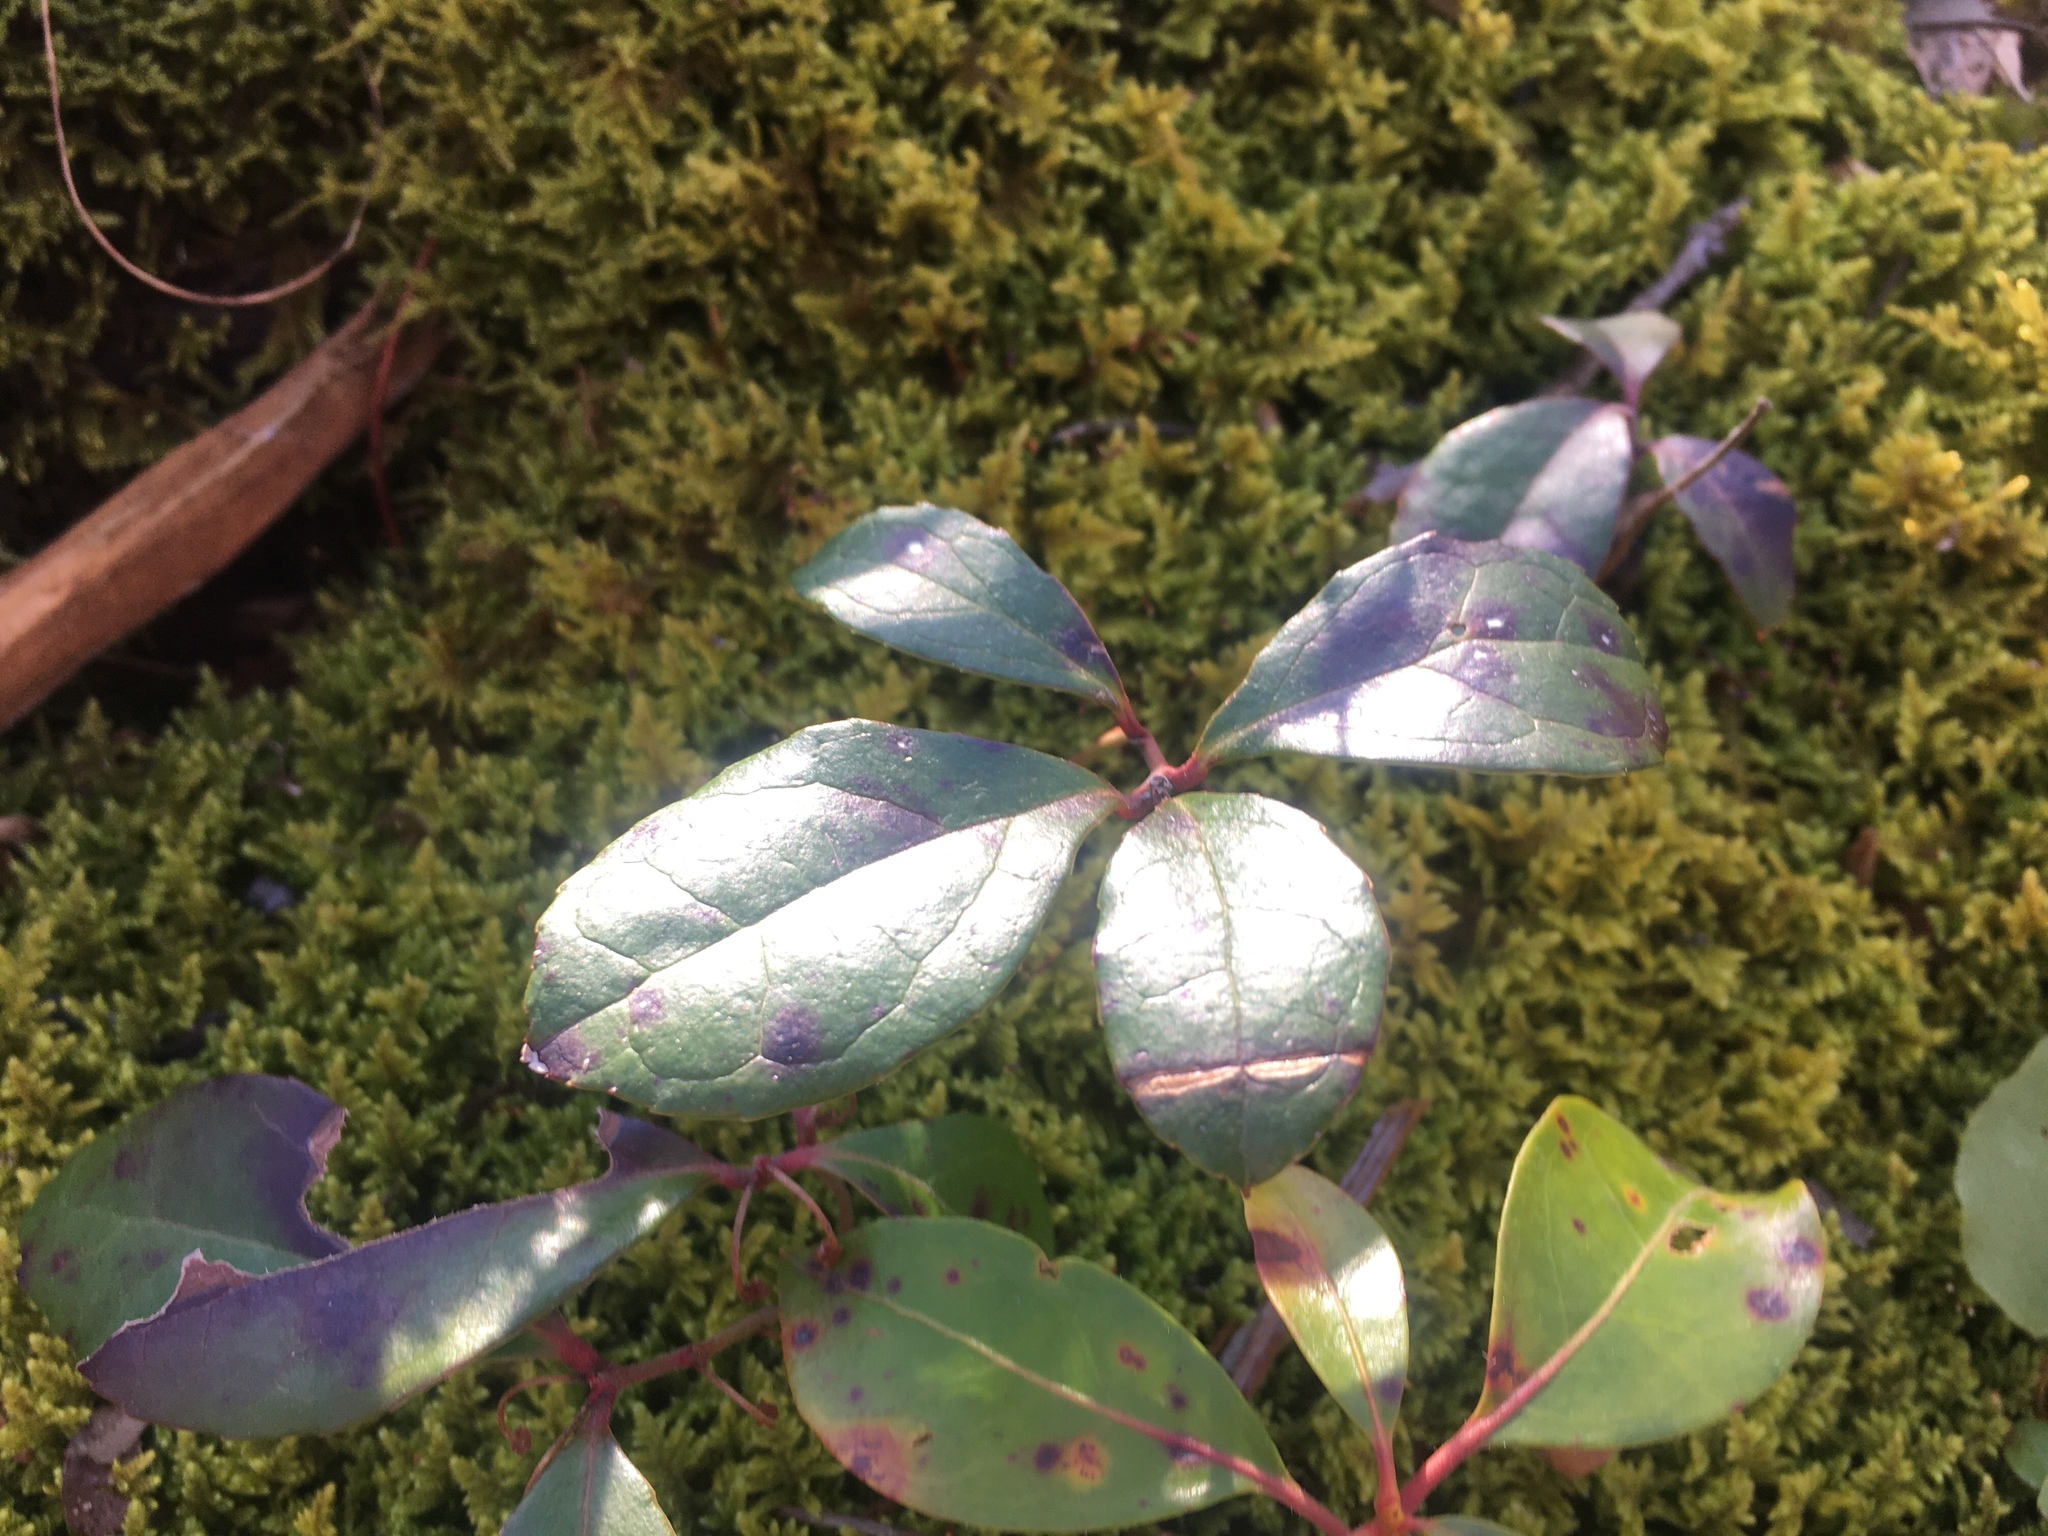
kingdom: Plantae
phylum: Tracheophyta
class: Magnoliopsida
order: Ericales
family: Ericaceae
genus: Gaultheria
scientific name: Gaultheria procumbens
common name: Checkerberry
